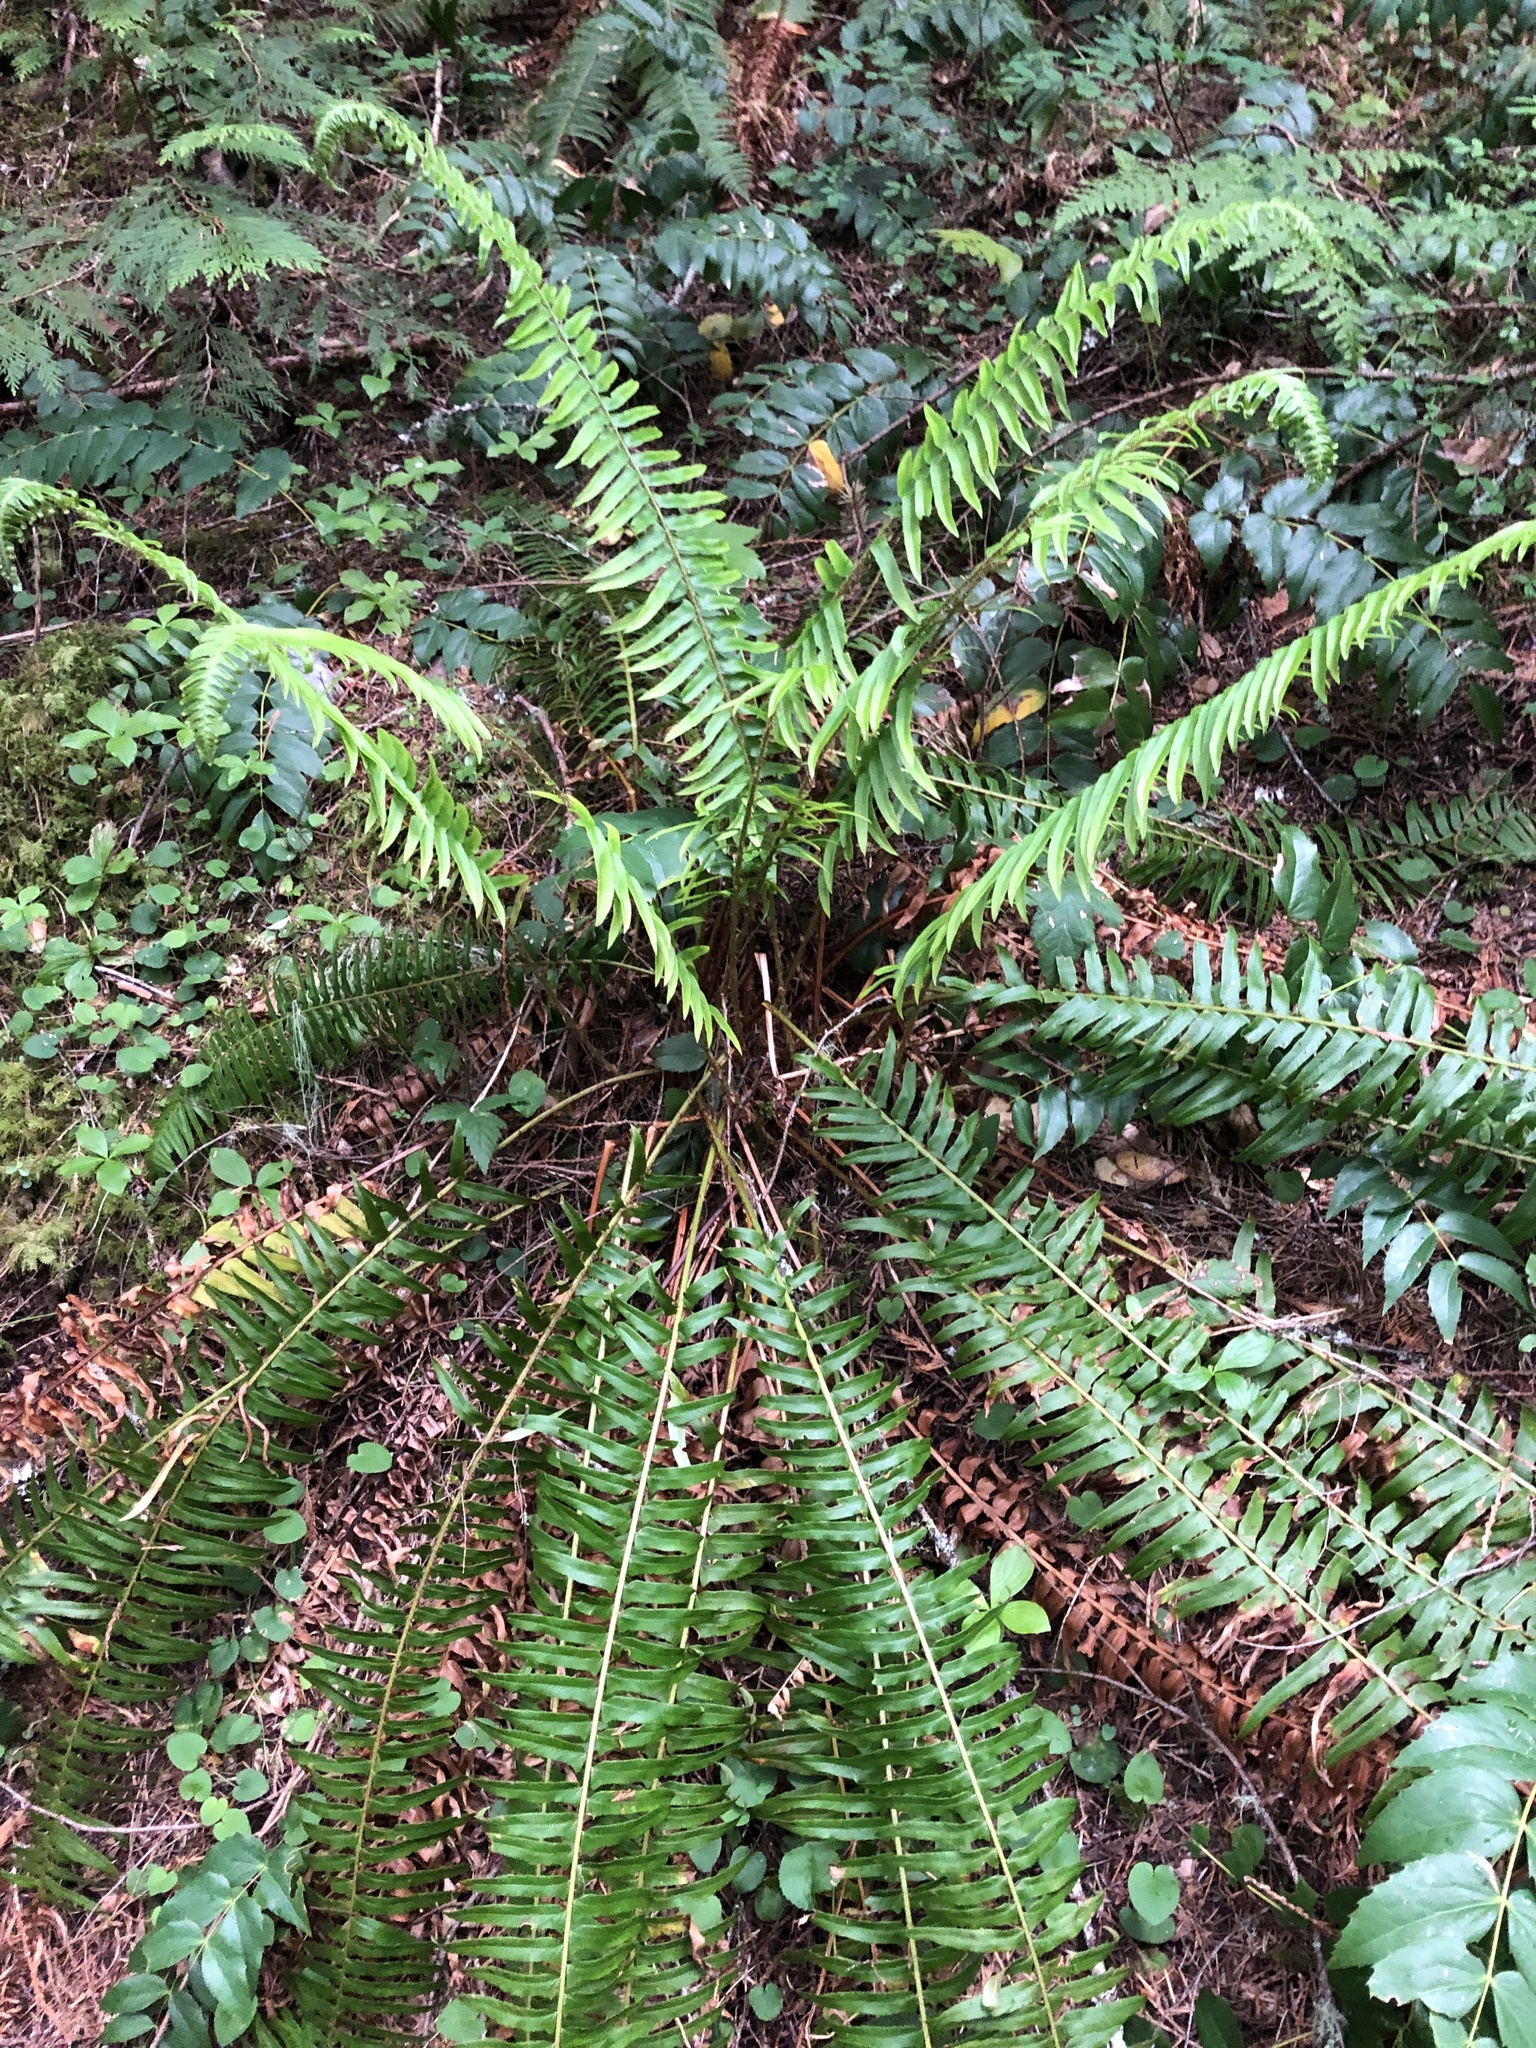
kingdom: Plantae
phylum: Tracheophyta
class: Polypodiopsida
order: Polypodiales
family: Dryopteridaceae
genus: Polystichum
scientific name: Polystichum munitum
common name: Western sword-fern
